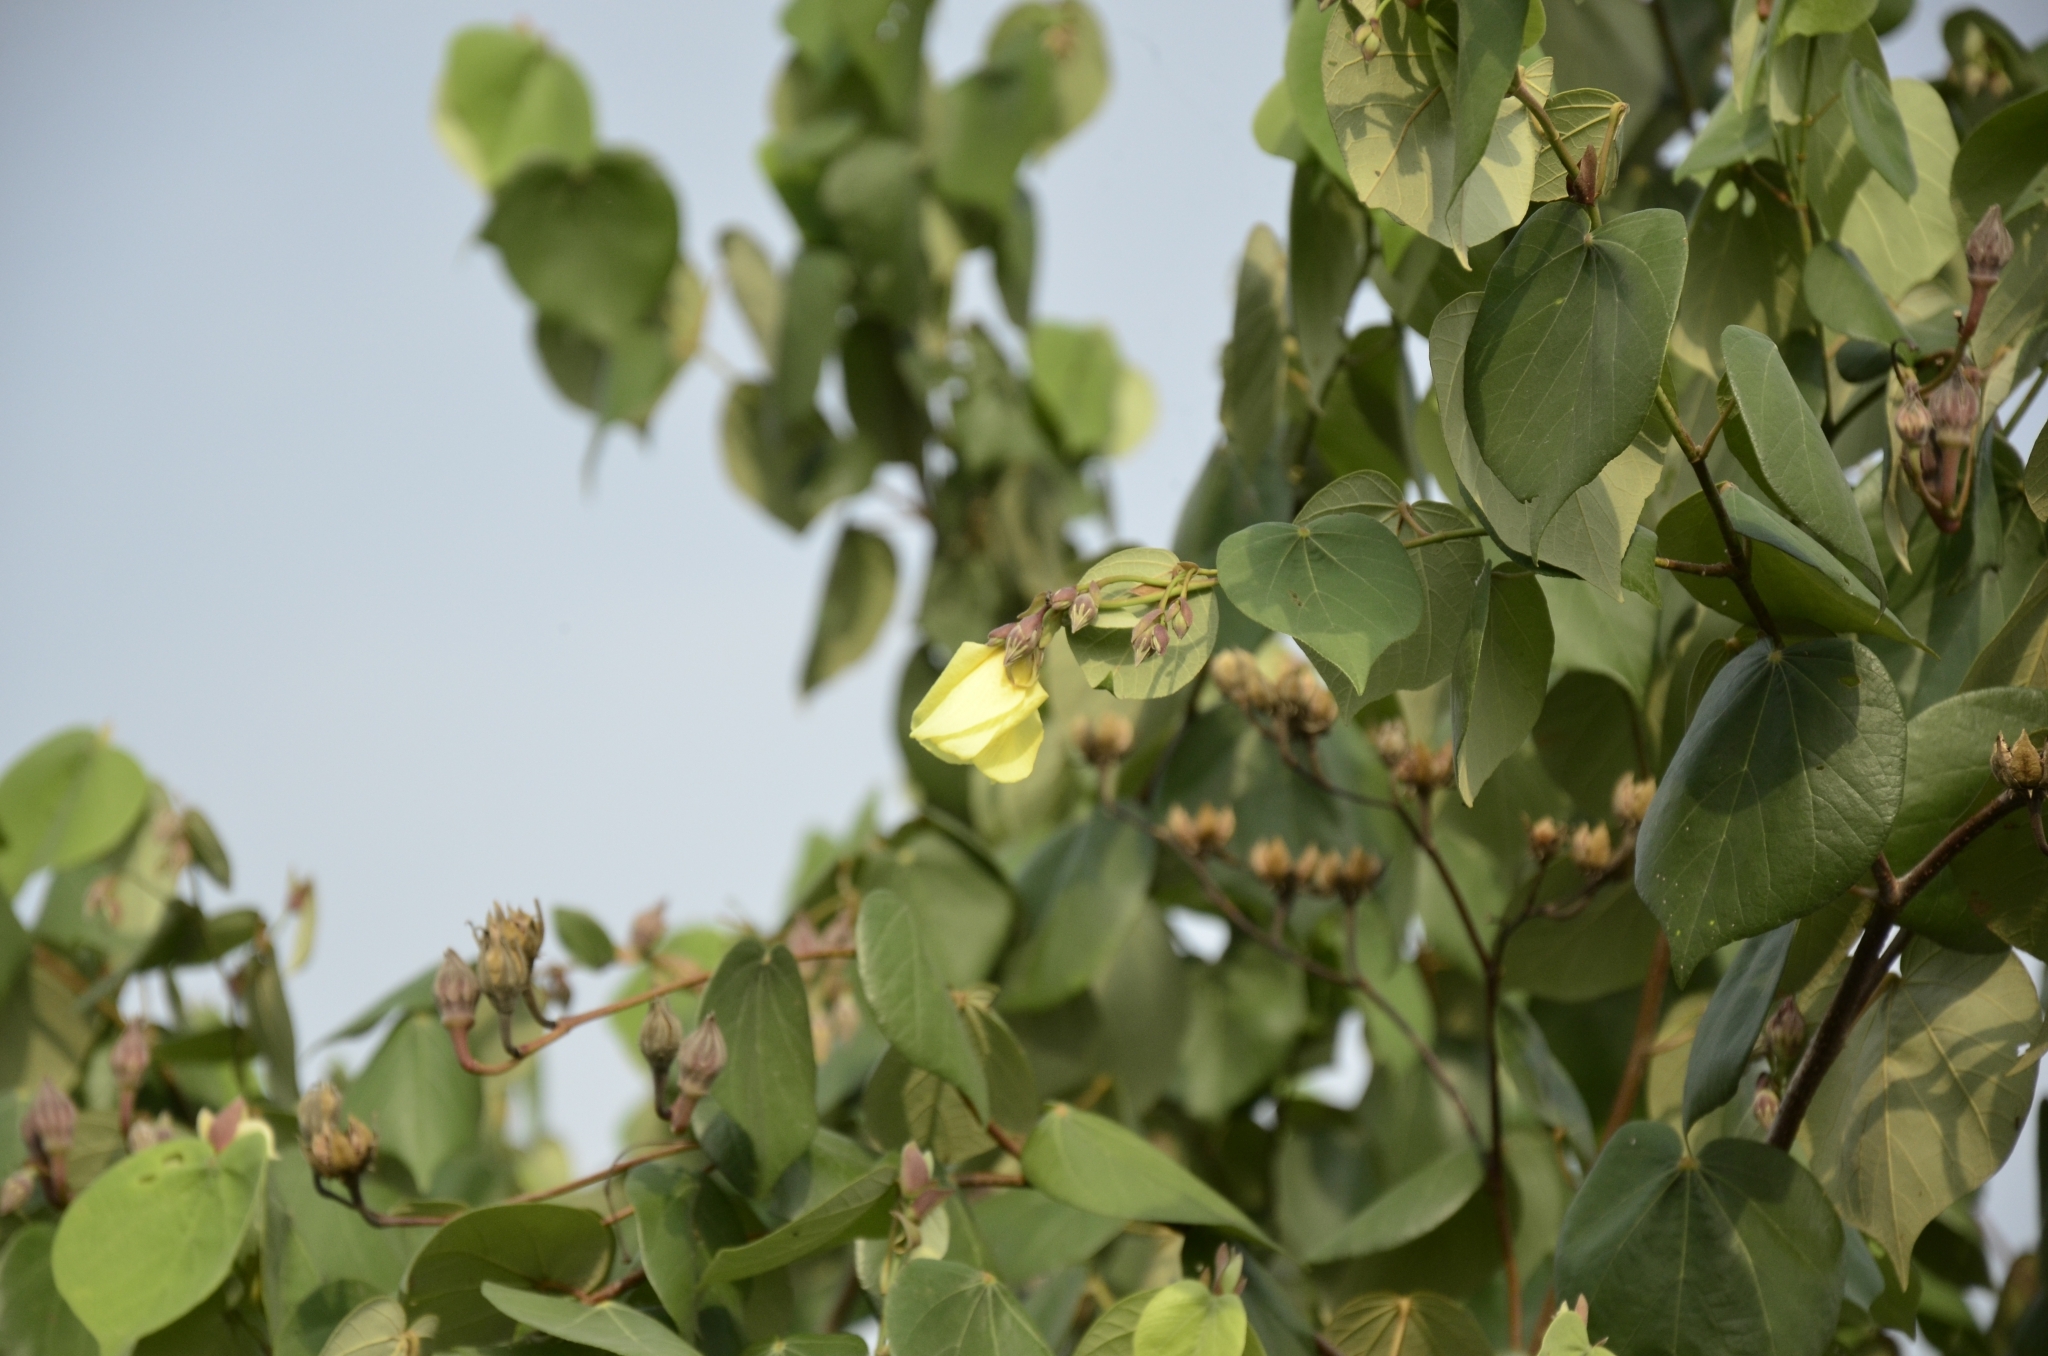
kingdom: Plantae
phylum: Tracheophyta
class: Magnoliopsida
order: Malvales
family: Malvaceae
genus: Talipariti
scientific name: Talipariti tiliaceum
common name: Sea hibiscus
